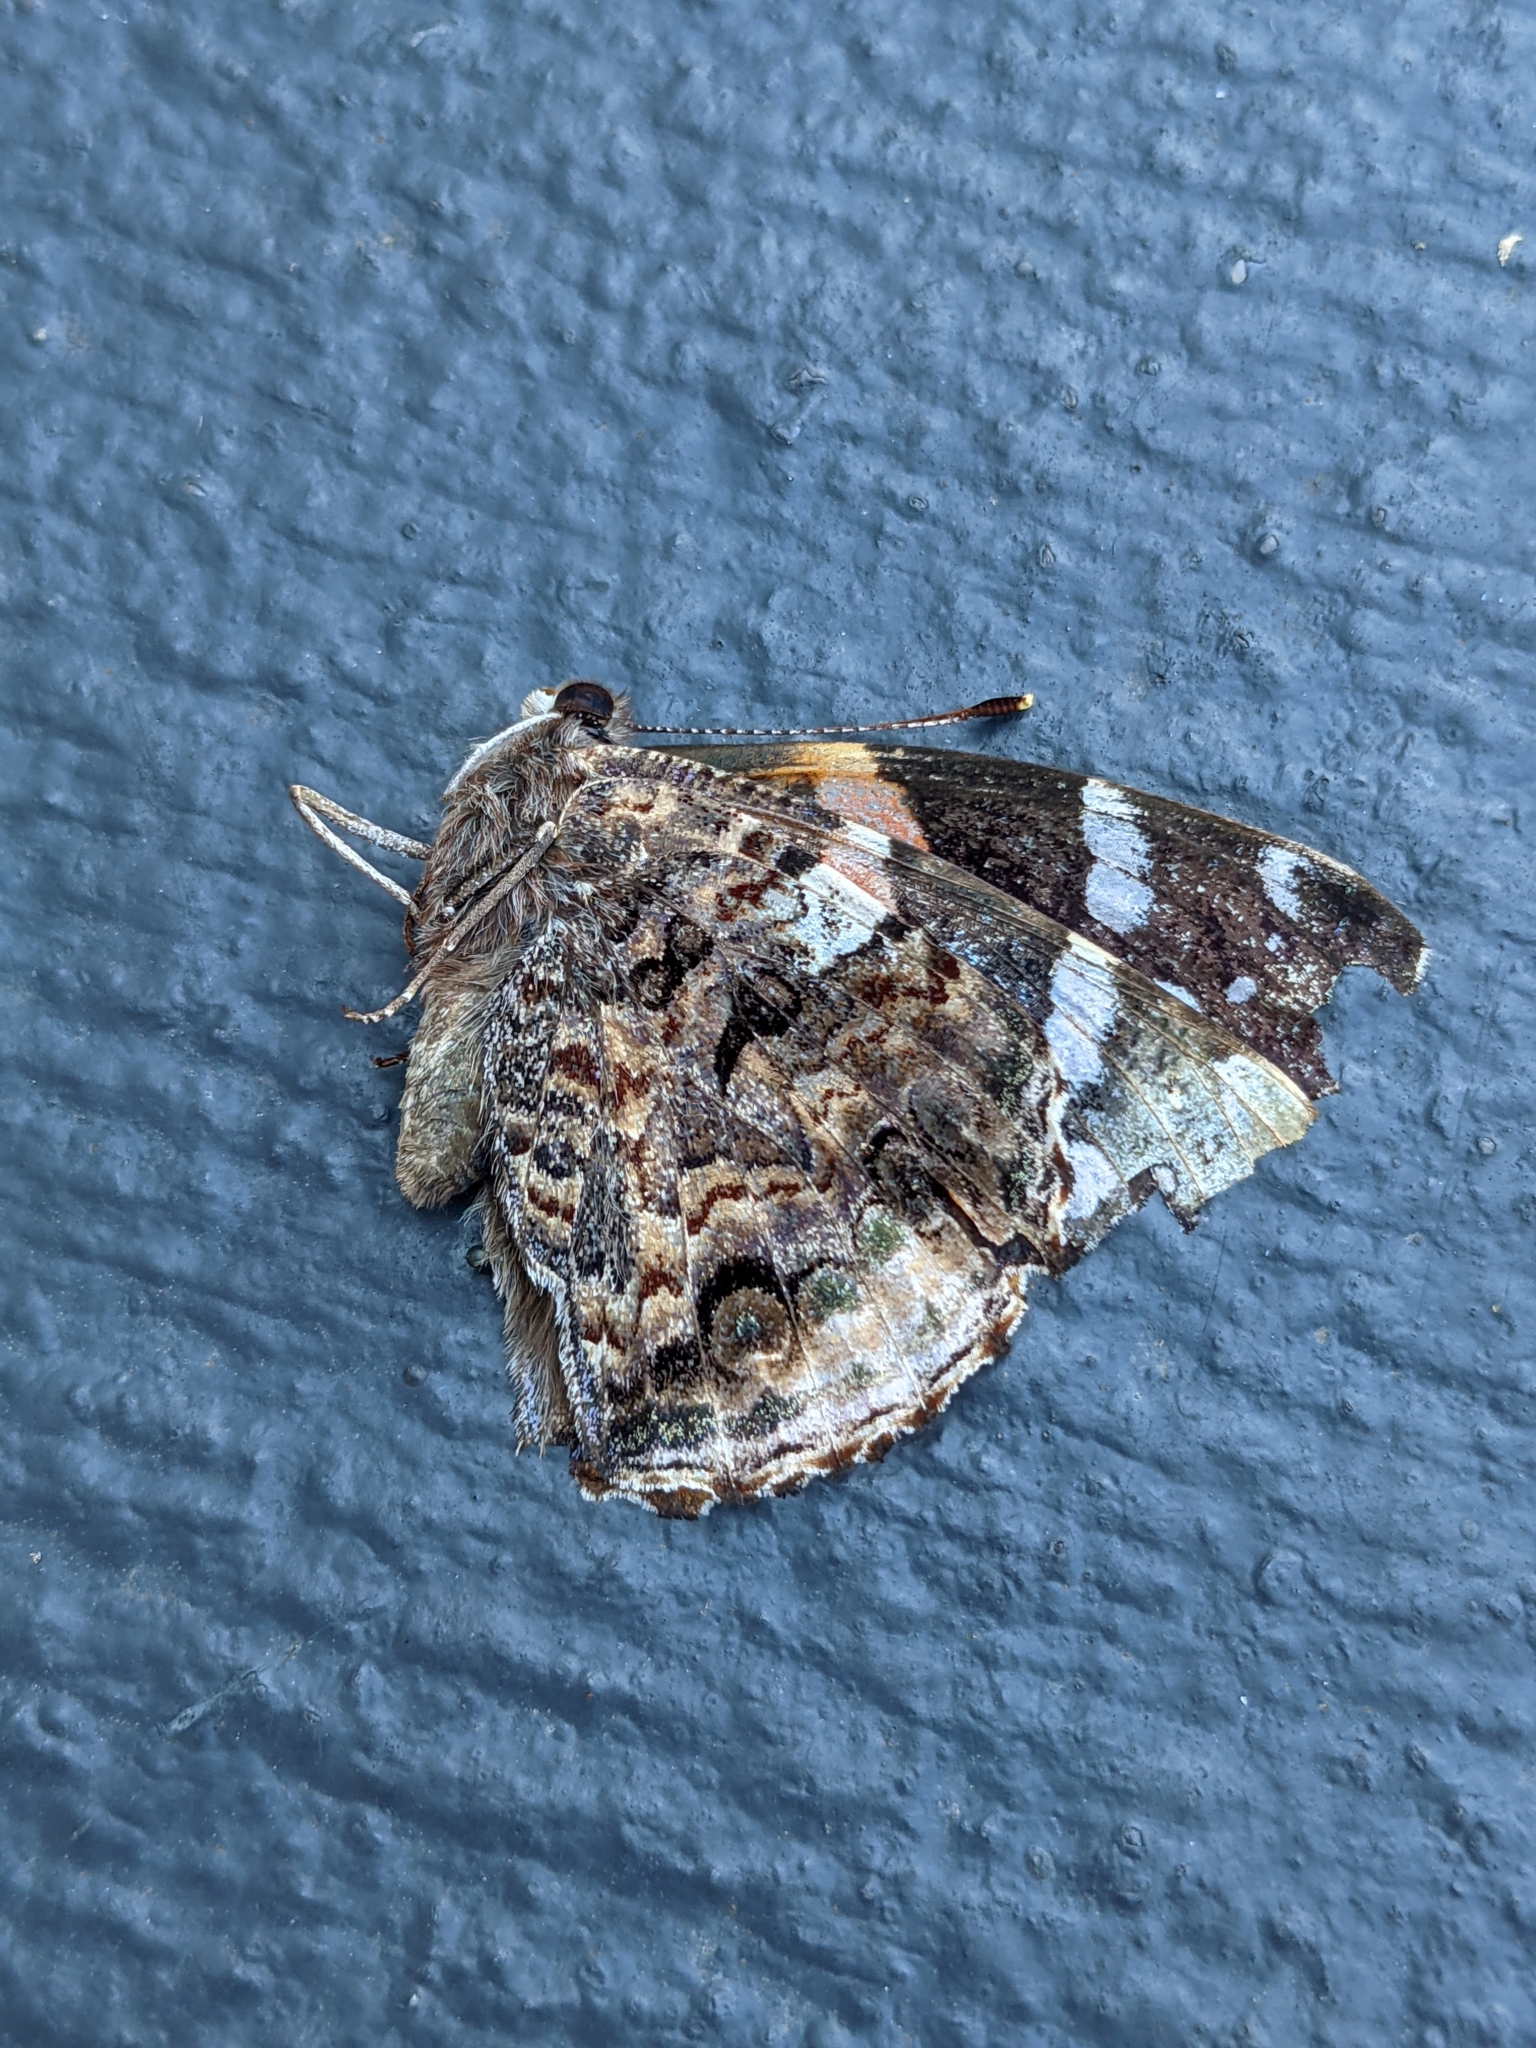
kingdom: Animalia
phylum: Arthropoda
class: Insecta
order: Lepidoptera
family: Nymphalidae
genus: Vanessa
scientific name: Vanessa atalanta
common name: Red admiral
